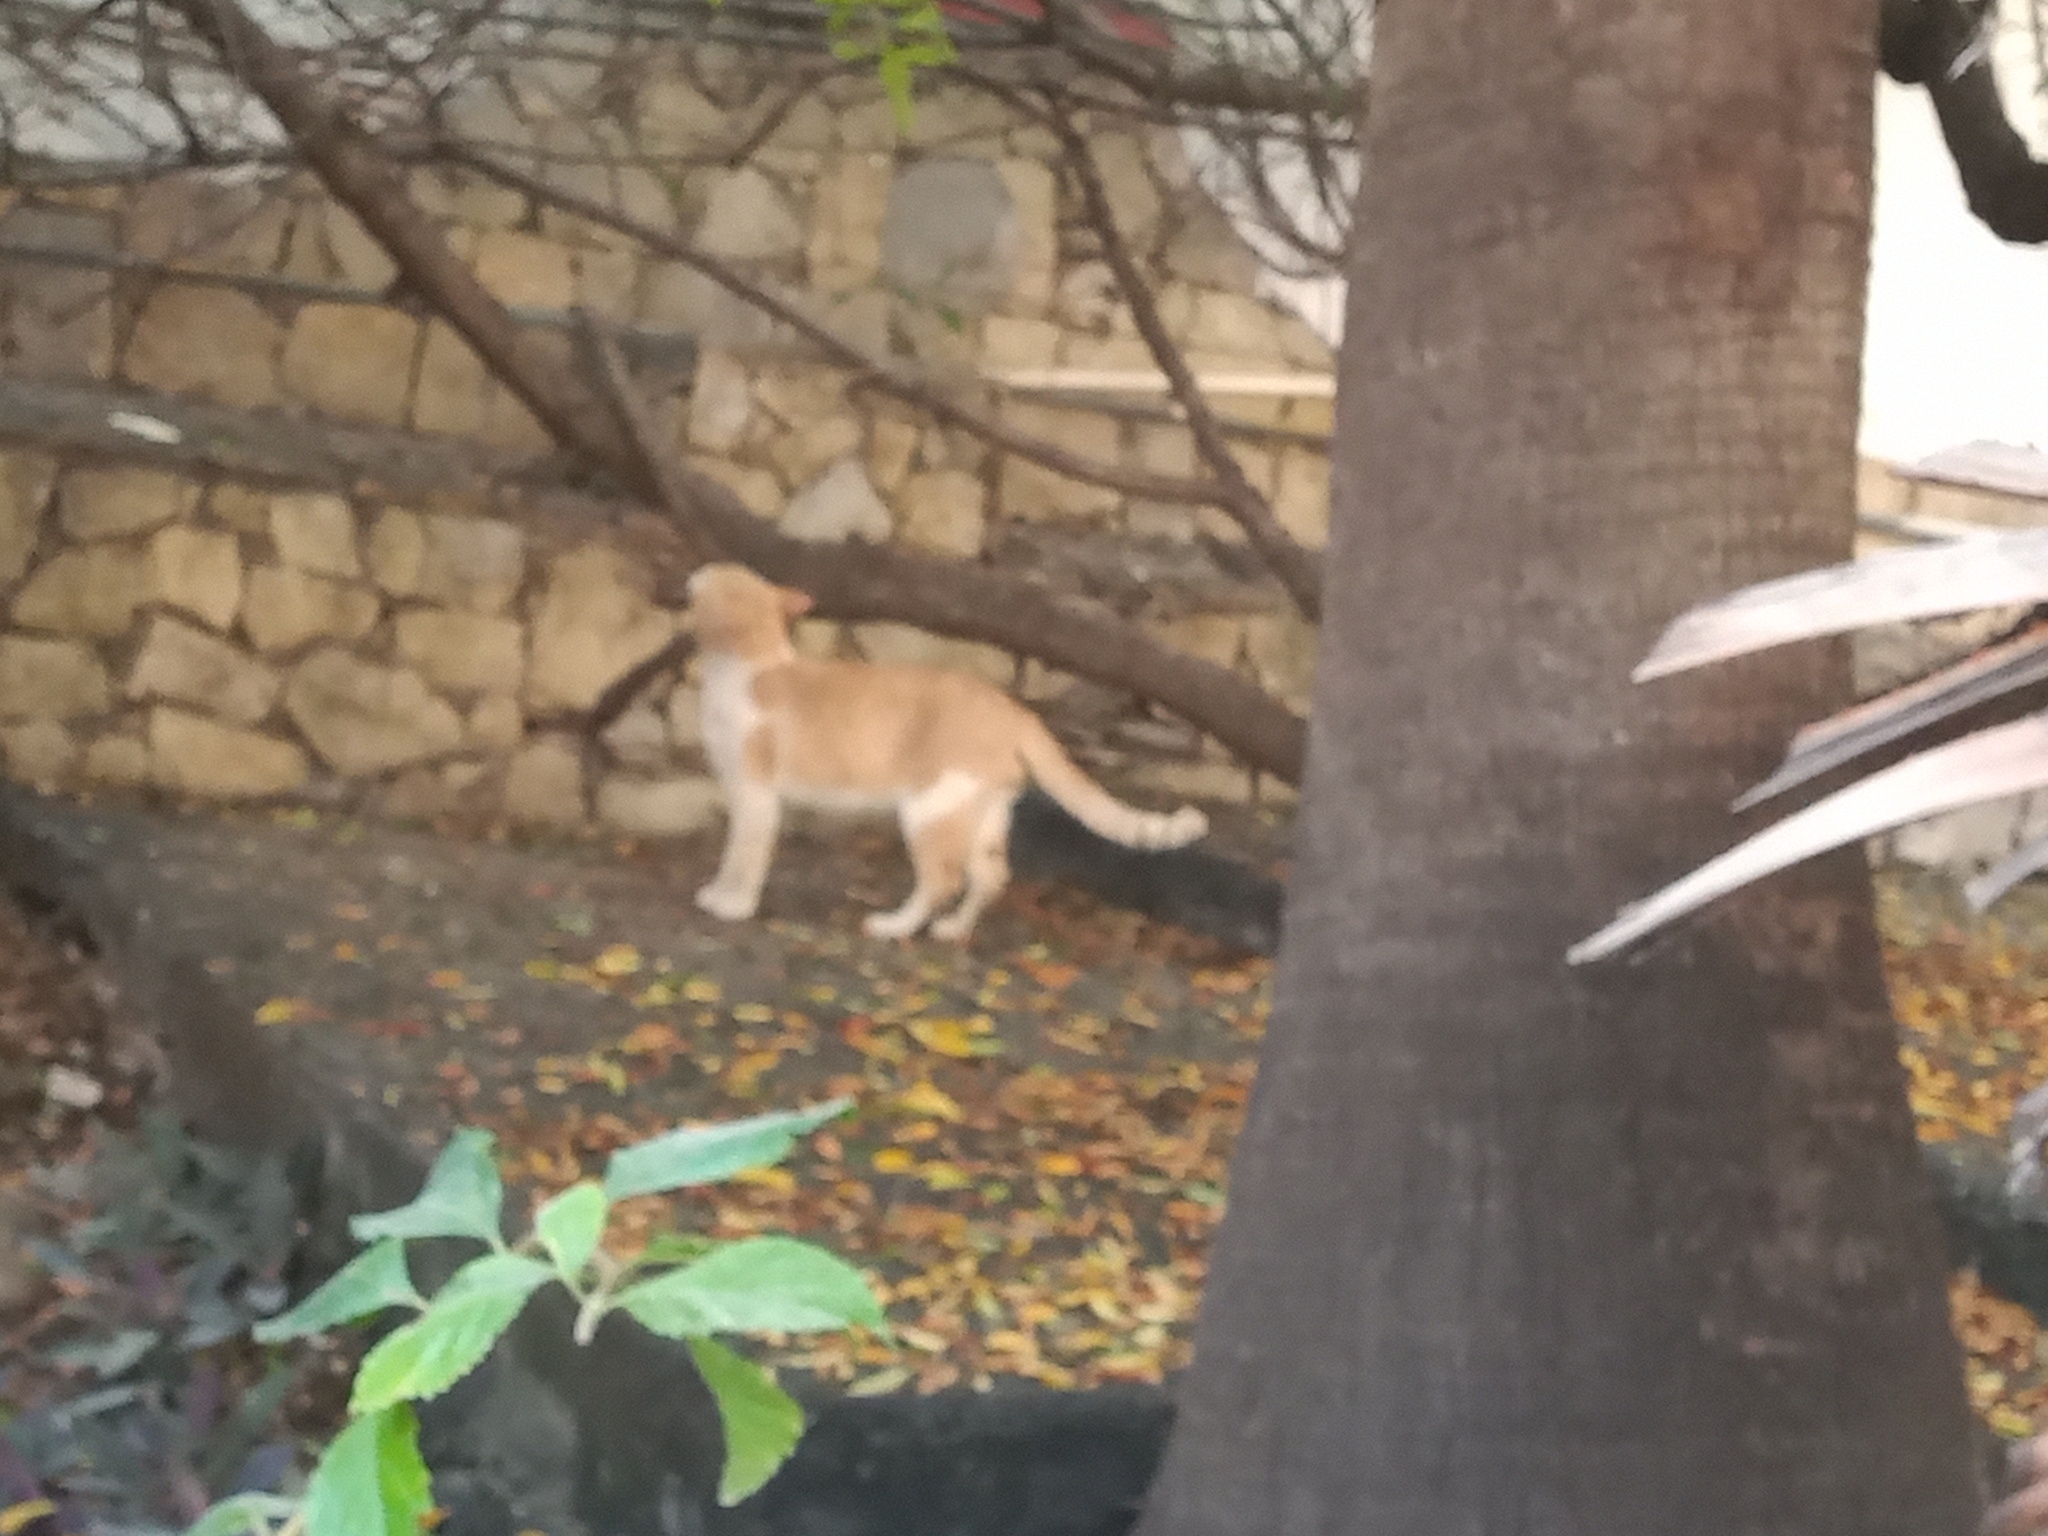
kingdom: Animalia
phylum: Chordata
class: Mammalia
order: Carnivora
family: Felidae
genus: Felis
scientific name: Felis catus
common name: Domestic cat
